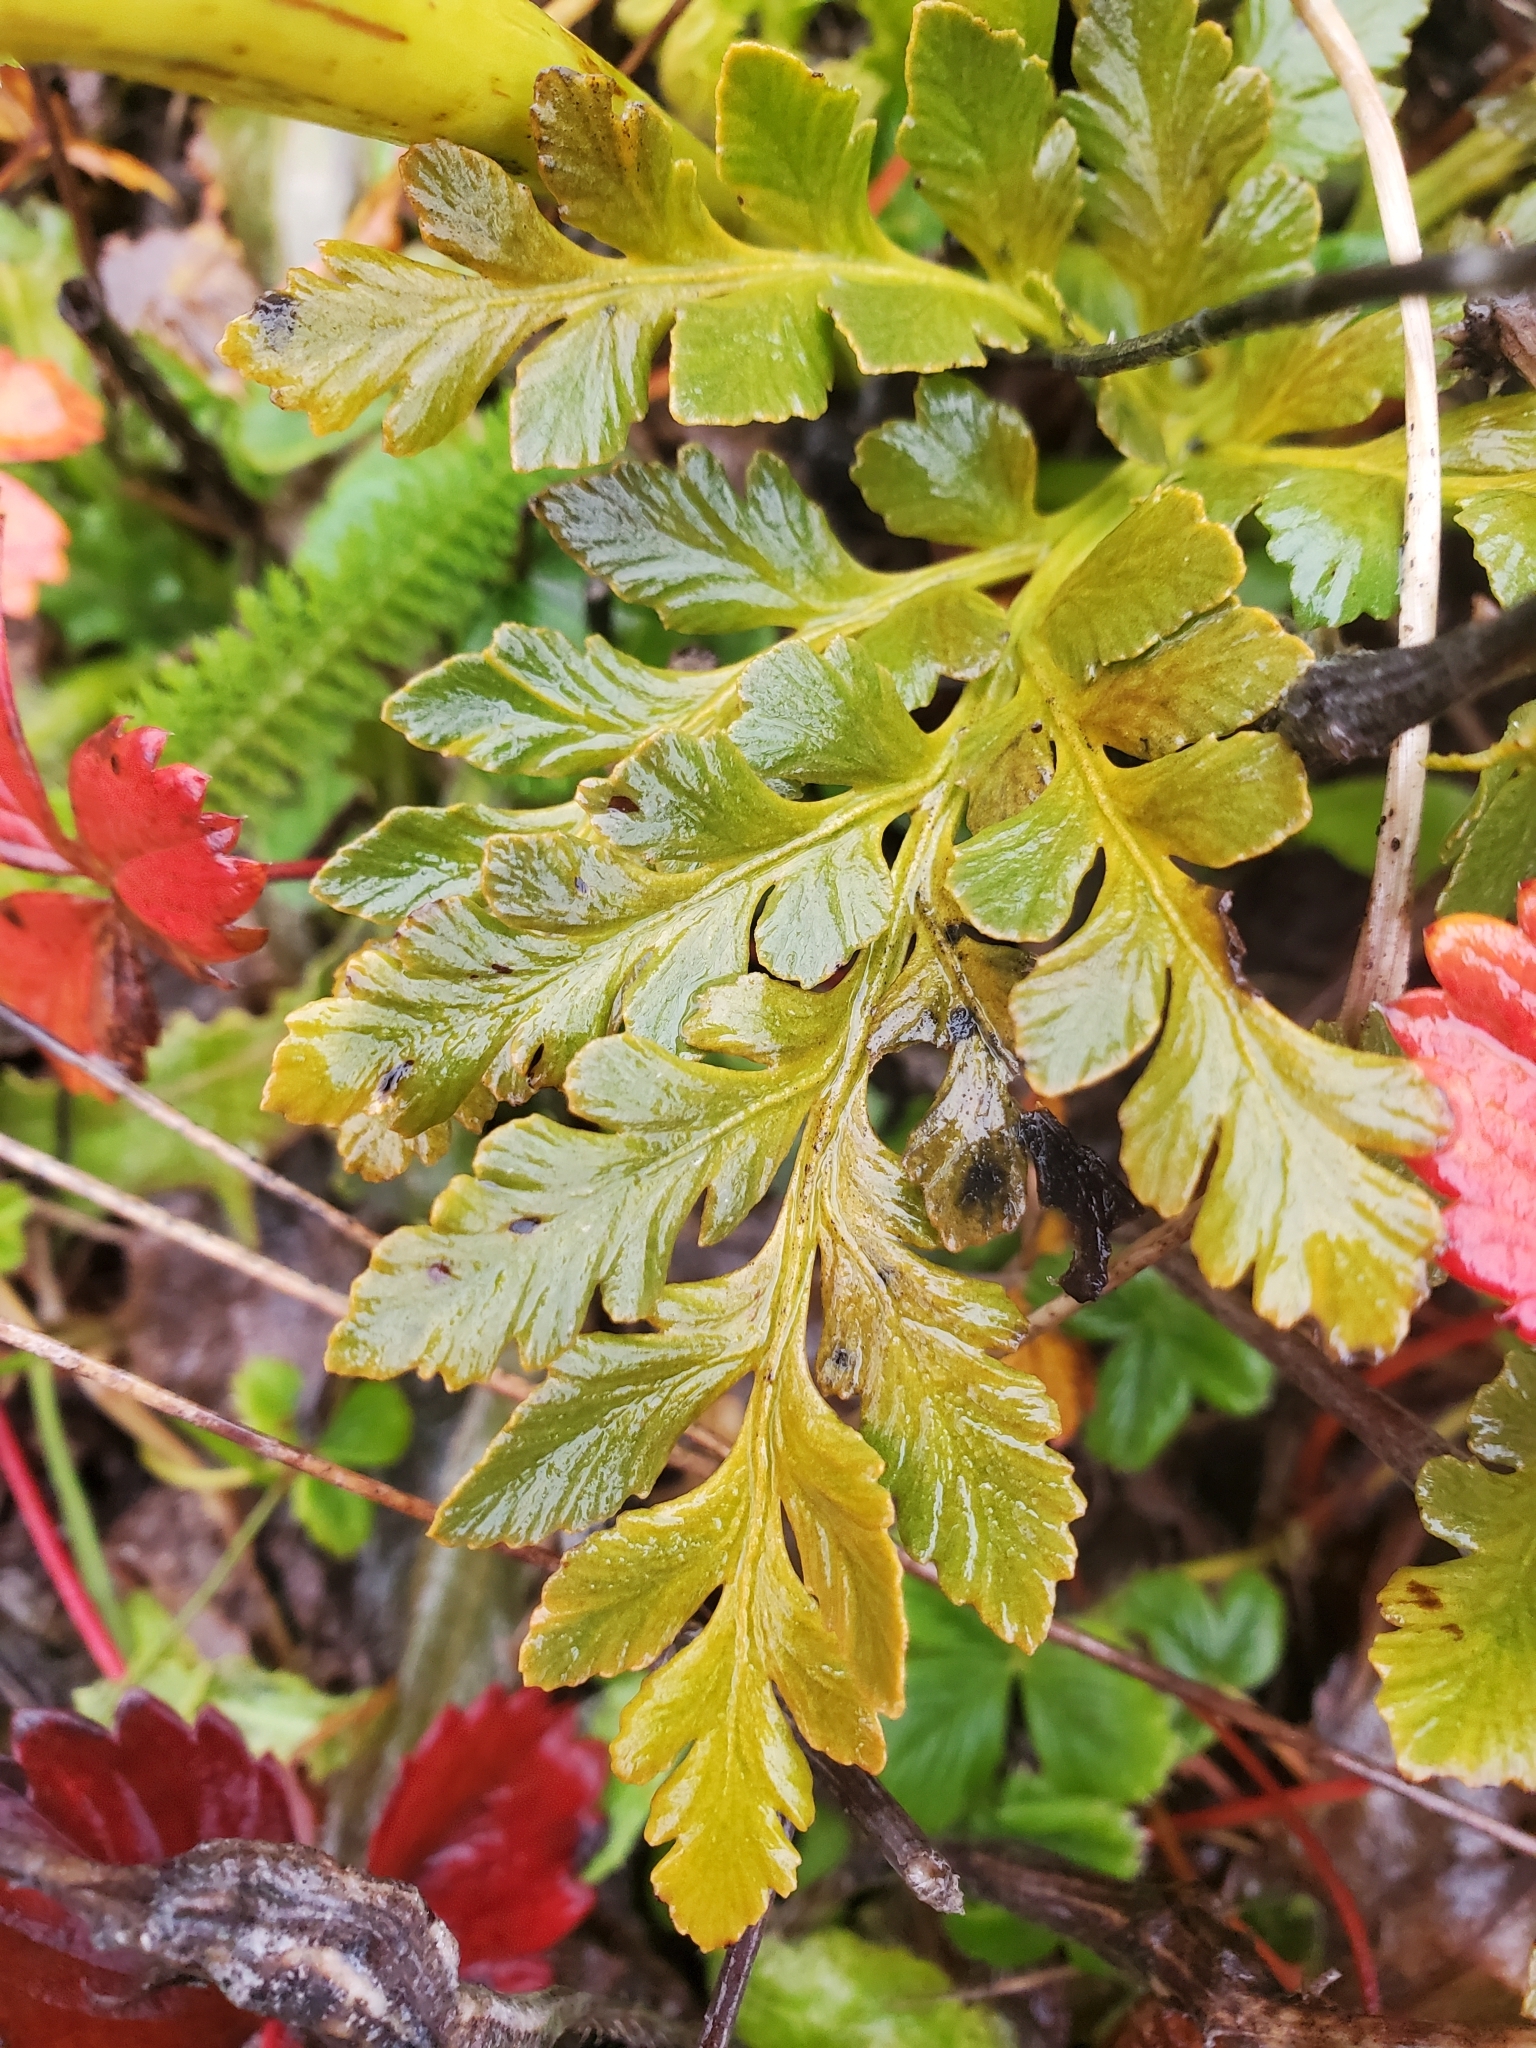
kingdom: Plantae
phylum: Tracheophyta
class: Polypodiopsida
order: Ophioglossales
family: Ophioglossaceae
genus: Sceptridium
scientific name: Sceptridium multifidum
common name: Leathery grape fern
